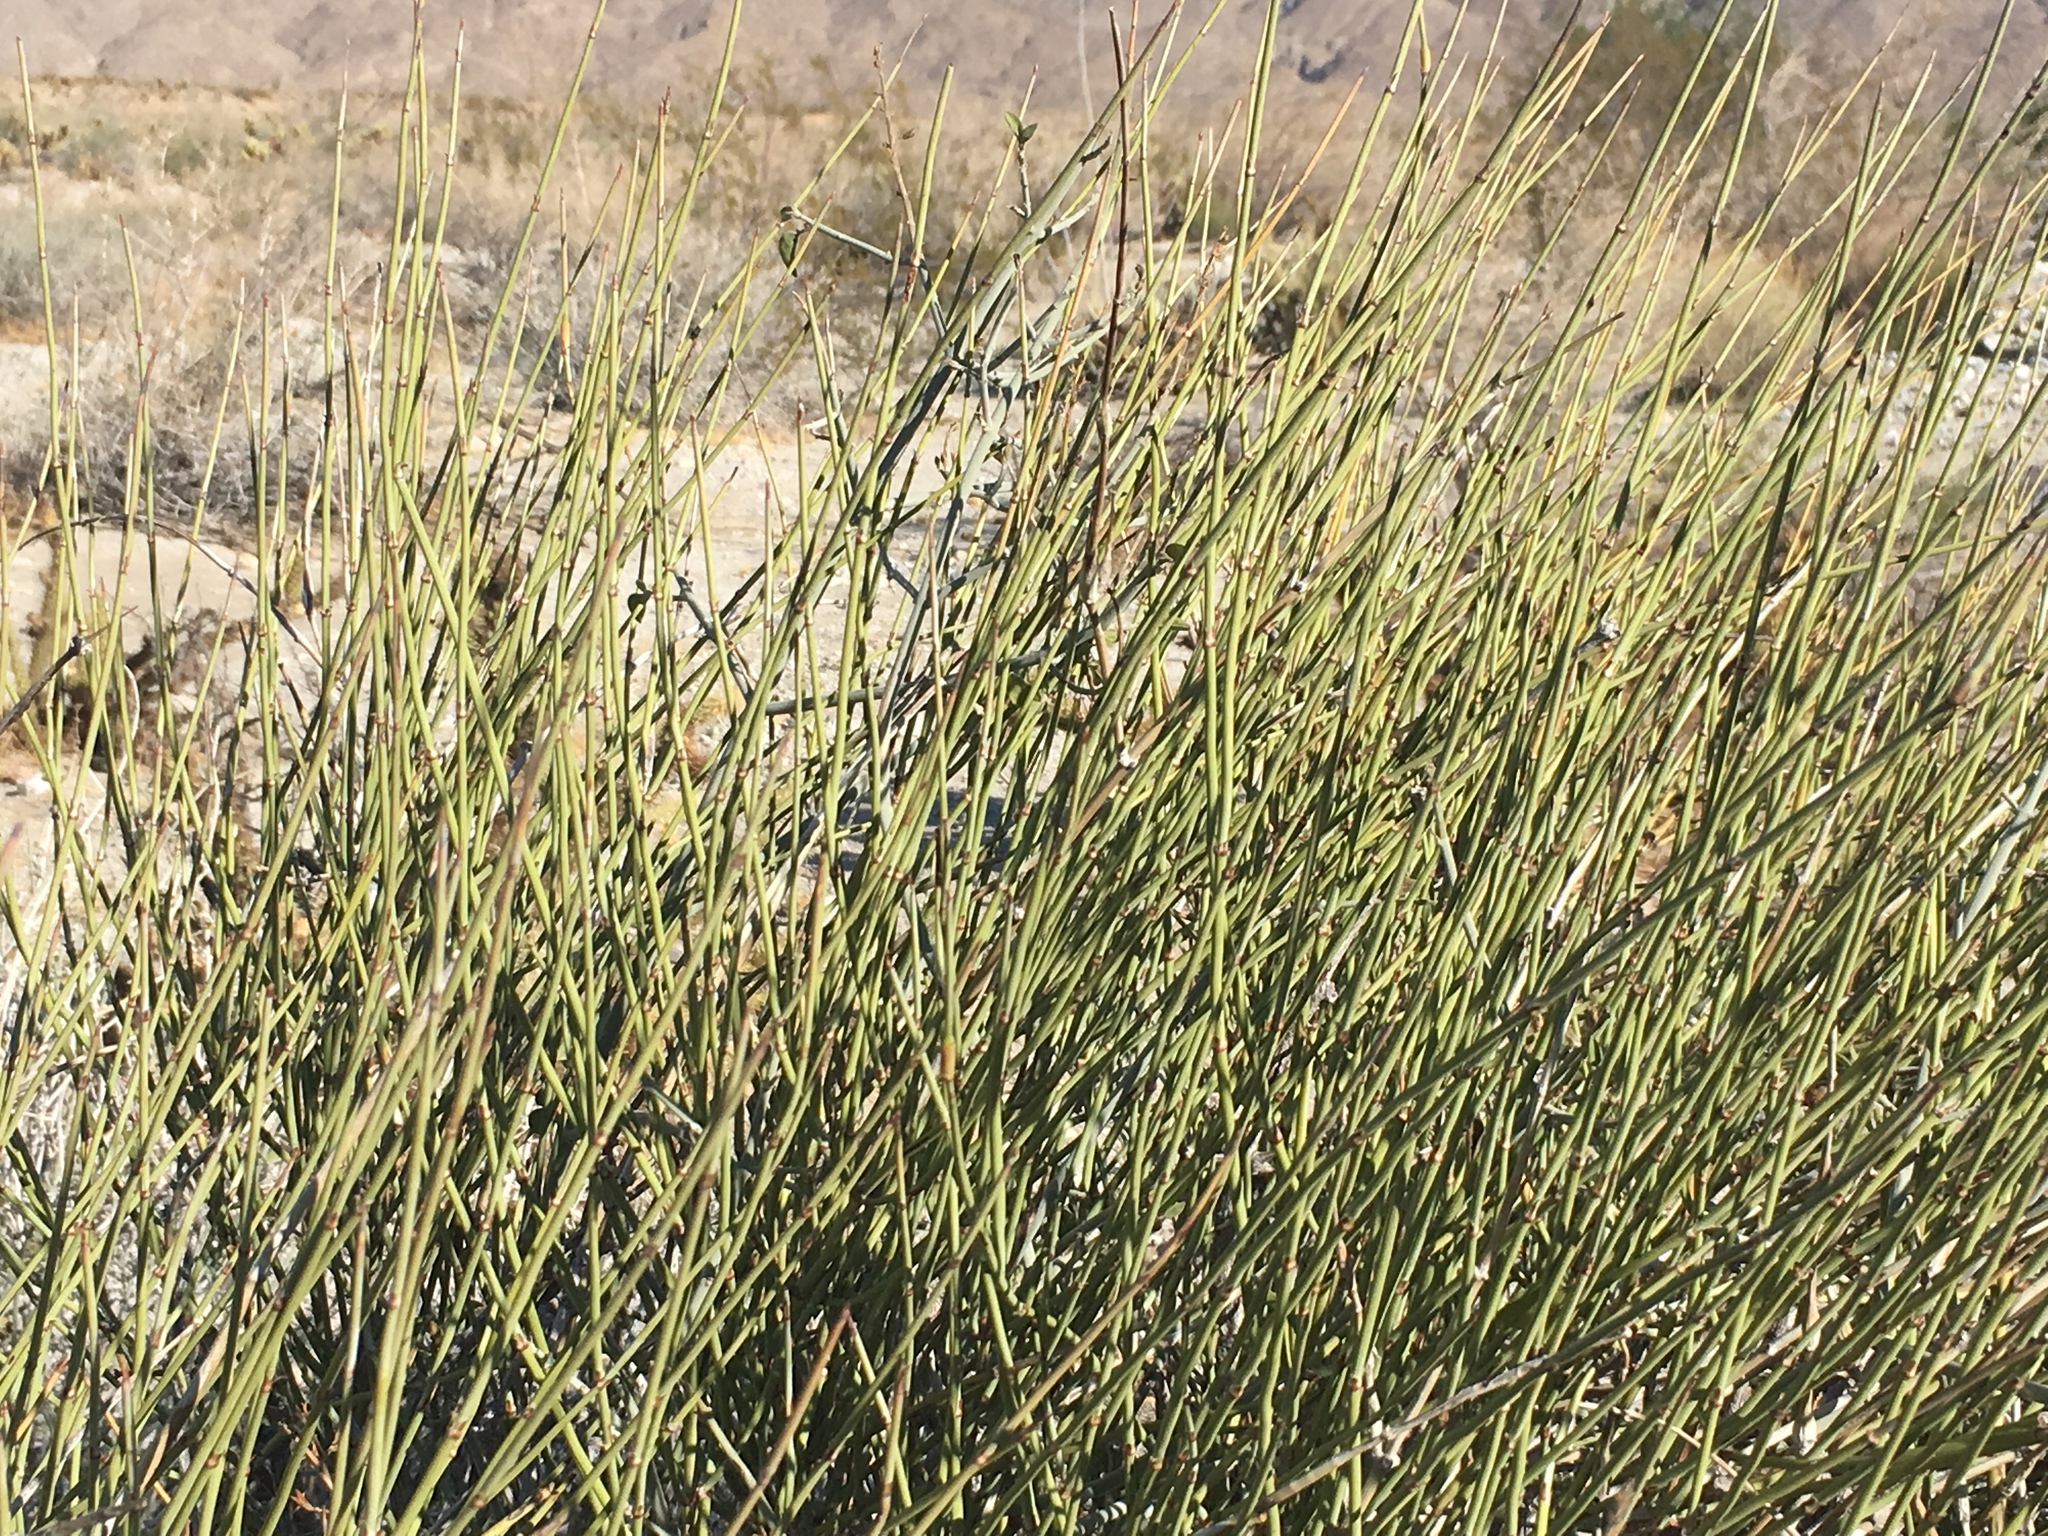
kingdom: Plantae
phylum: Tracheophyta
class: Gnetopsida
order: Ephedrales
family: Ephedraceae
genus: Ephedra
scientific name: Ephedra californica
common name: California ephedra
